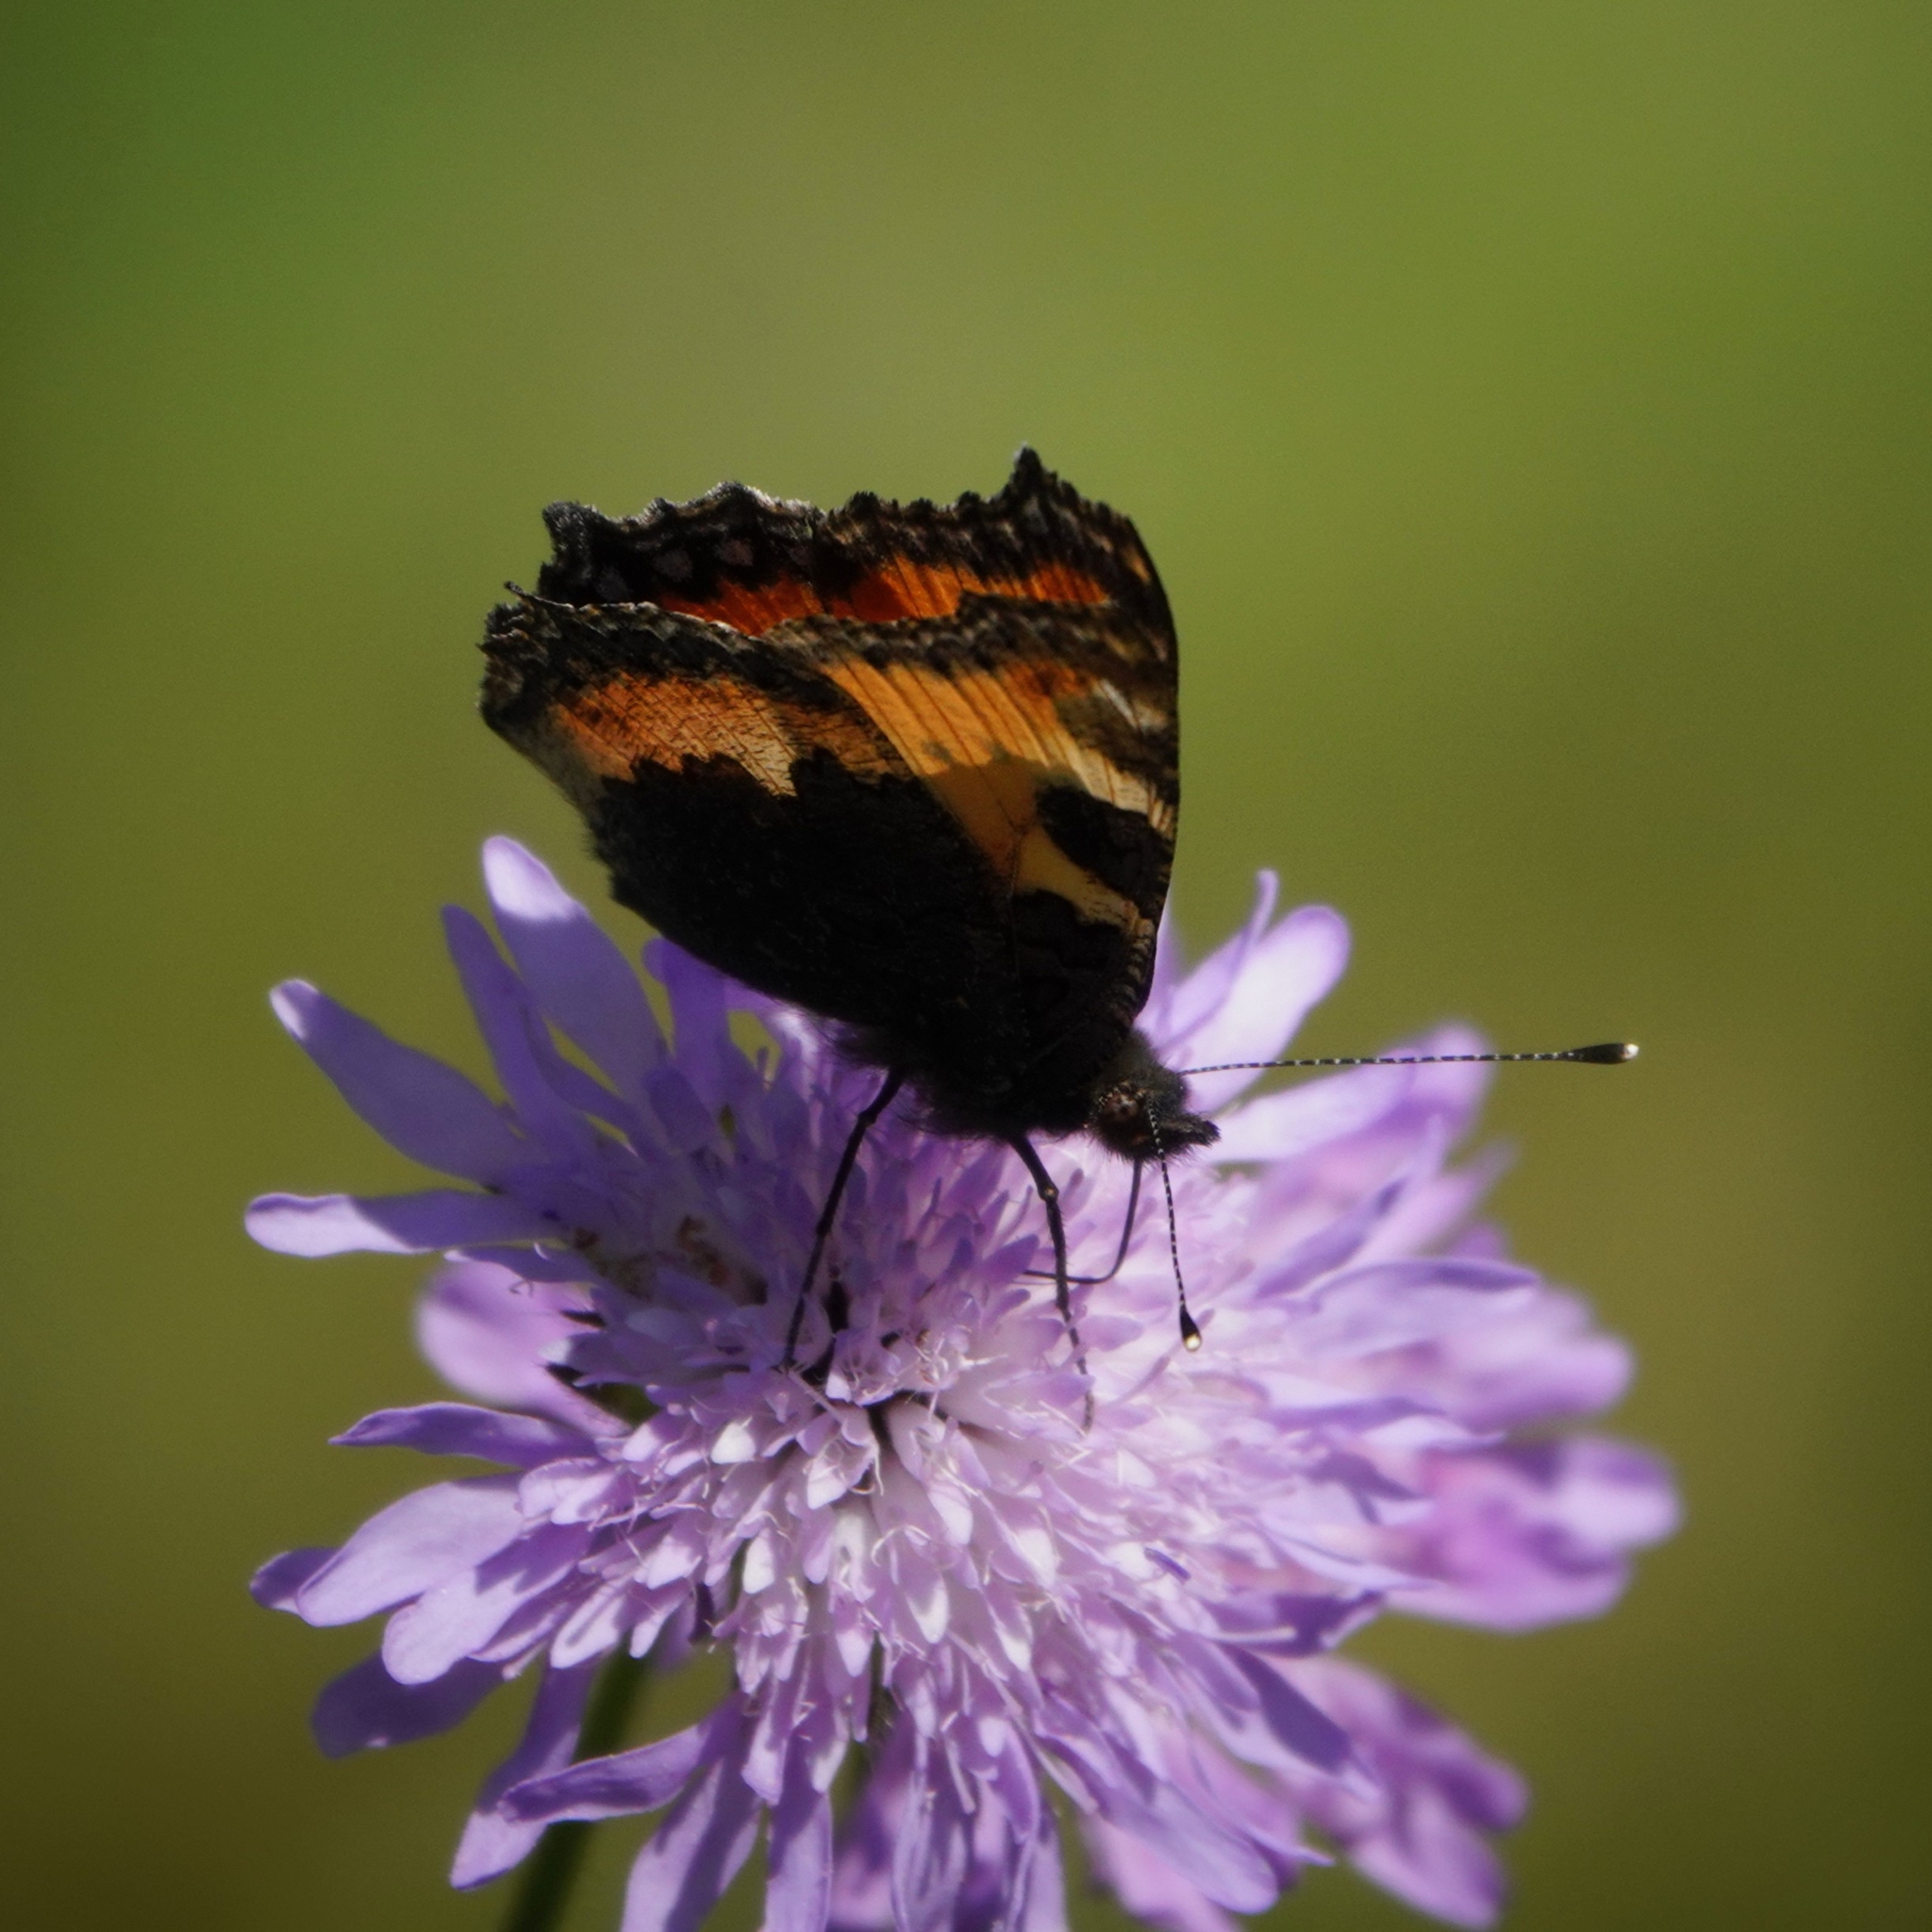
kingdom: Animalia
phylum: Arthropoda
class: Insecta
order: Lepidoptera
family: Nymphalidae
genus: Aglais
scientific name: Aglais urticae
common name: Small tortoiseshell
